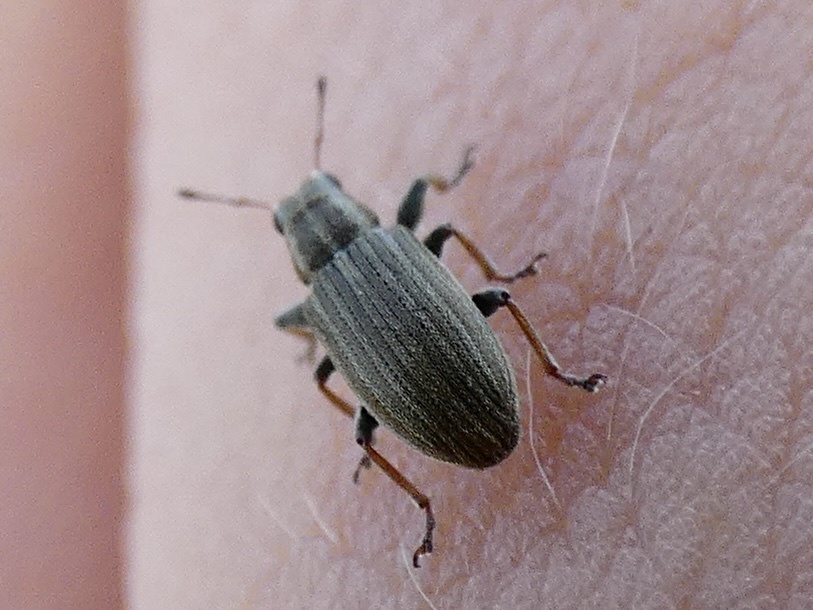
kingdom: Animalia
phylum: Arthropoda
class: Insecta
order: Coleoptera
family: Curculionidae
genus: Sitona
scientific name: Sitona lineatus
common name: Weevil
